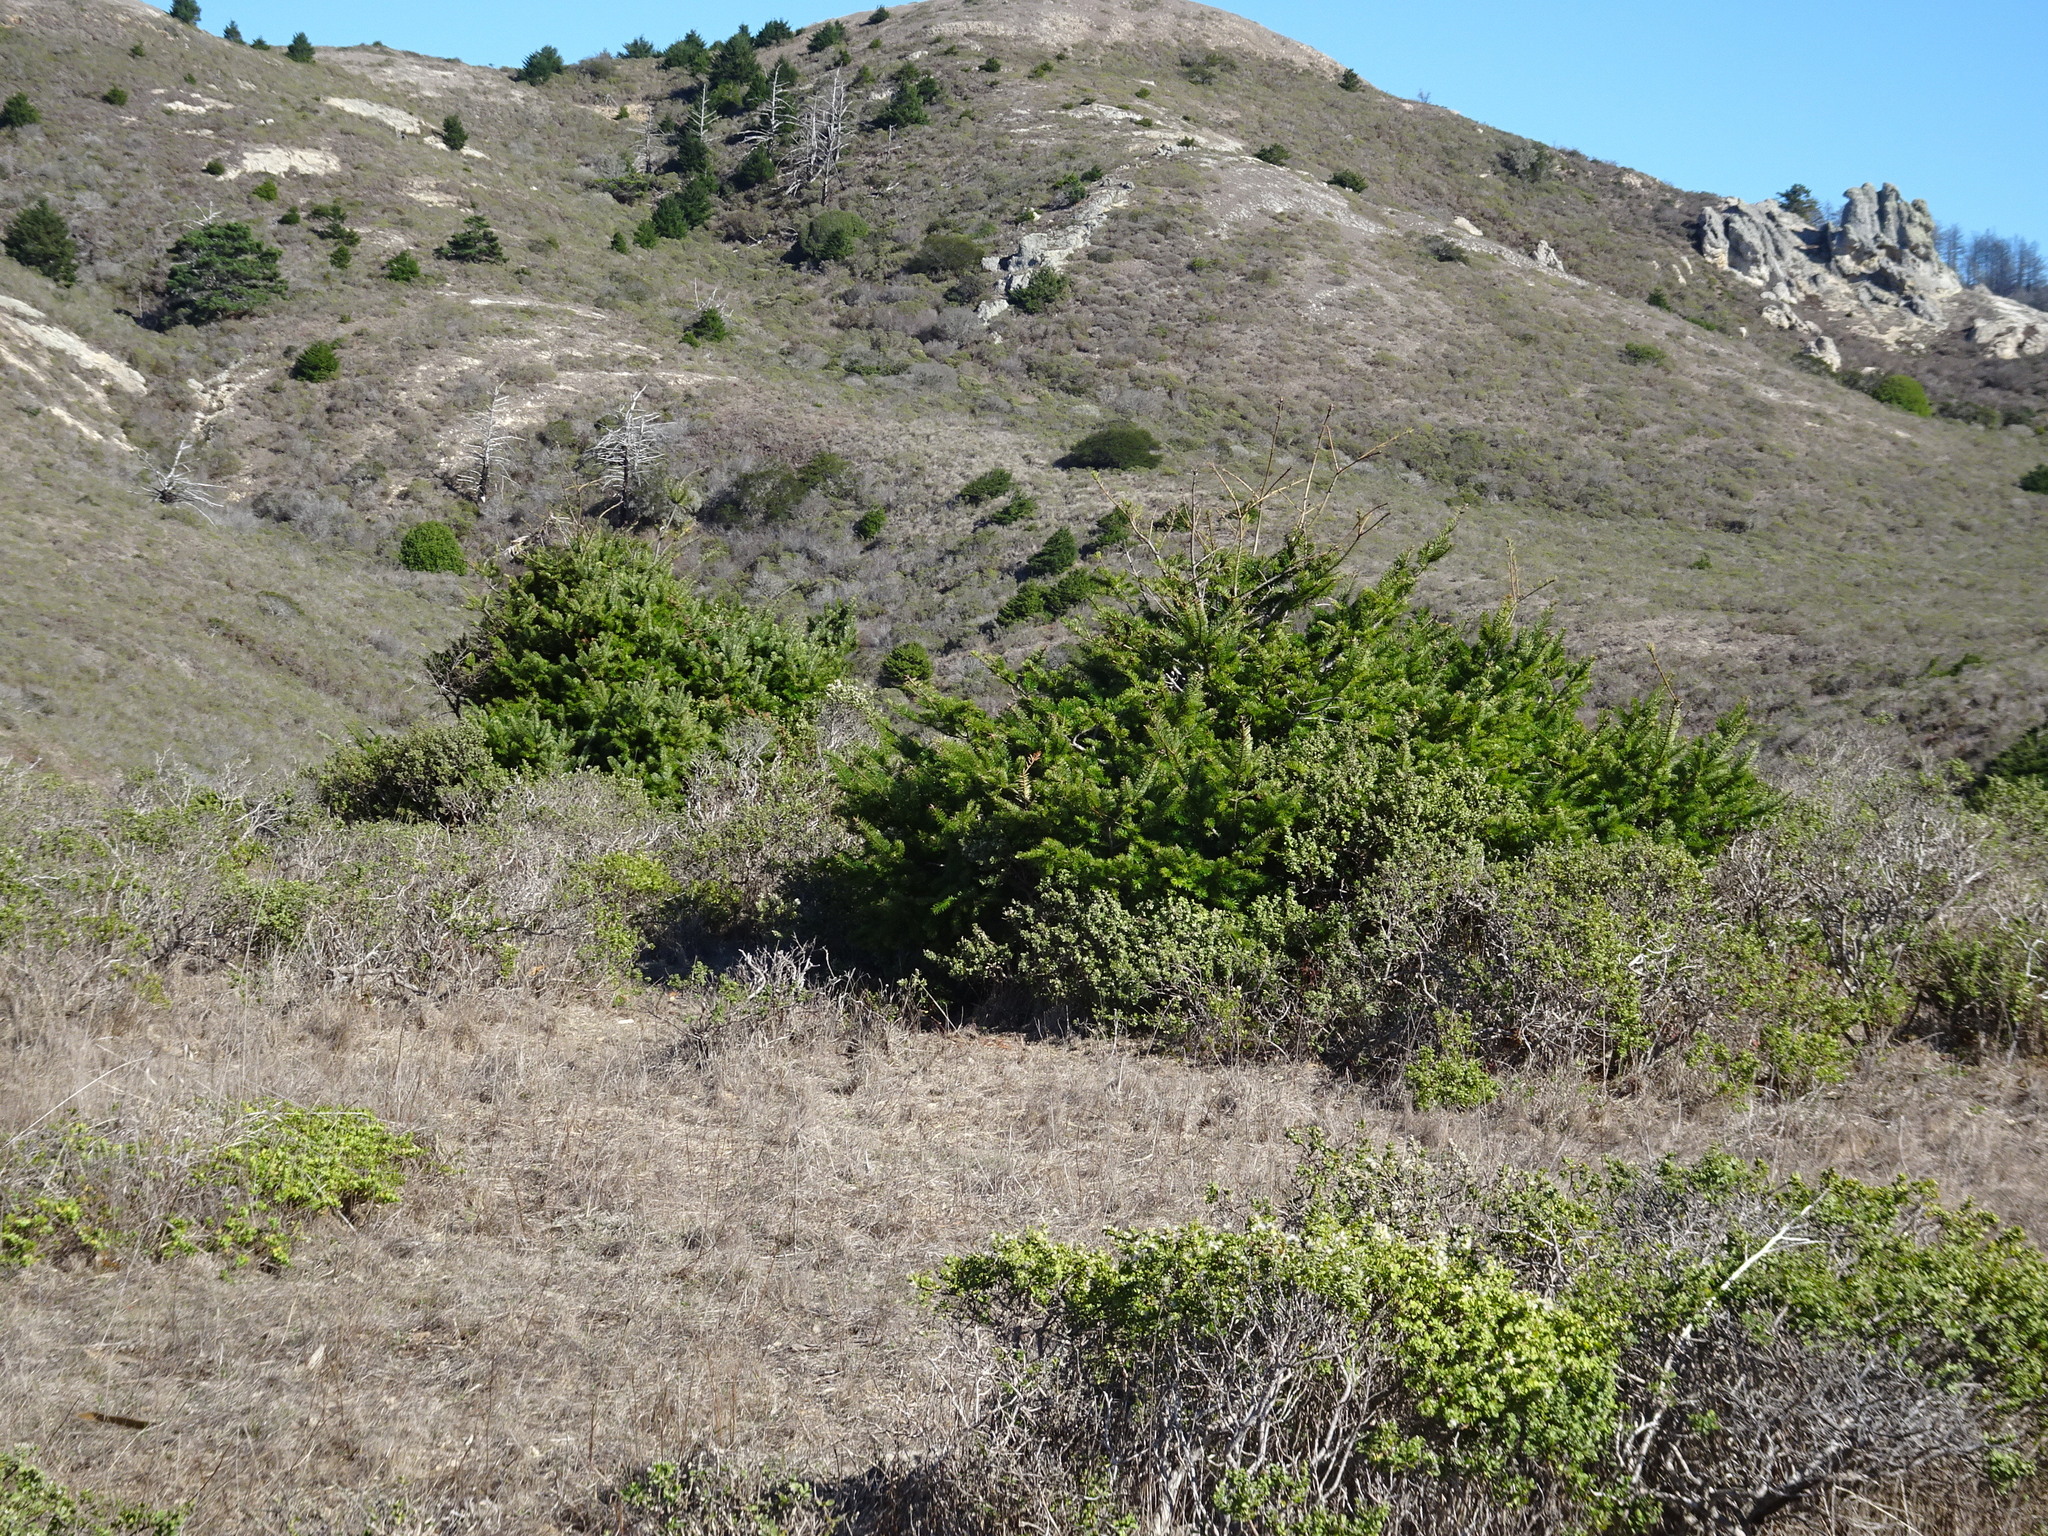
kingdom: Plantae
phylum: Tracheophyta
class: Pinopsida
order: Pinales
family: Pinaceae
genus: Pseudotsuga
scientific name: Pseudotsuga menziesii
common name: Douglas fir
